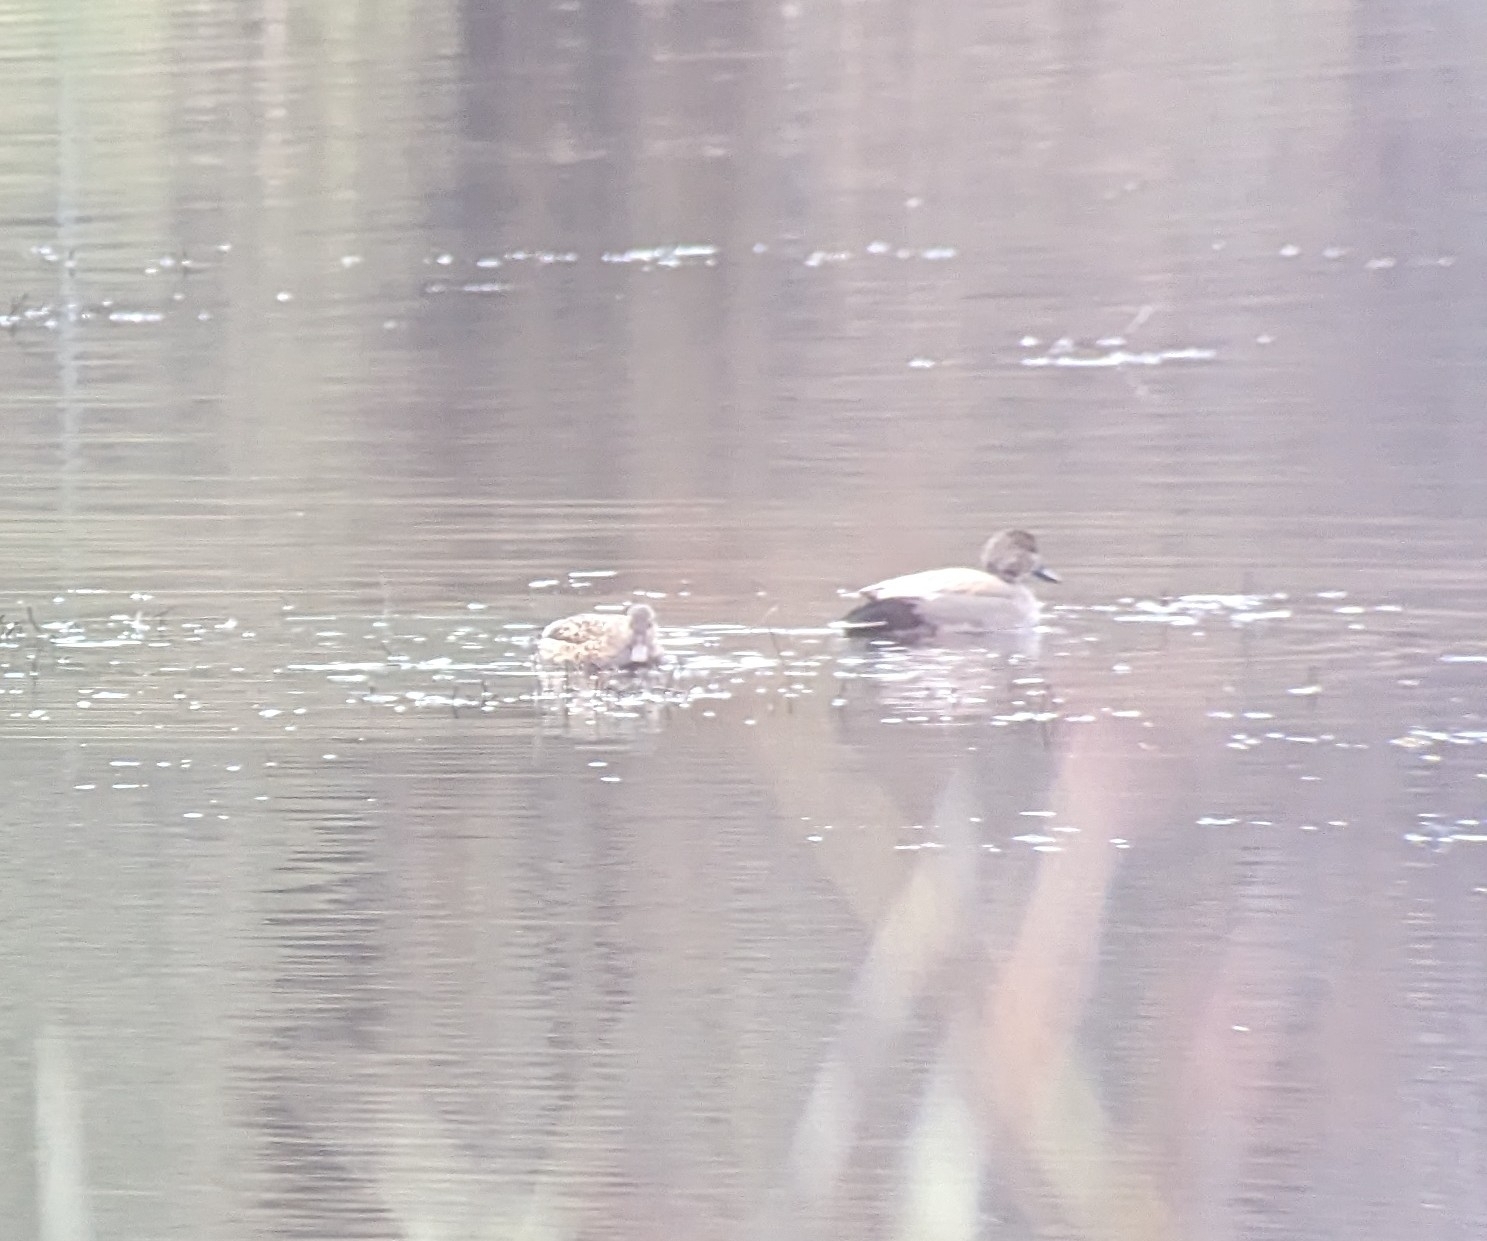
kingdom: Animalia
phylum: Chordata
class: Aves
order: Anseriformes
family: Anatidae
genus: Mareca
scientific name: Mareca strepera
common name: Gadwall
